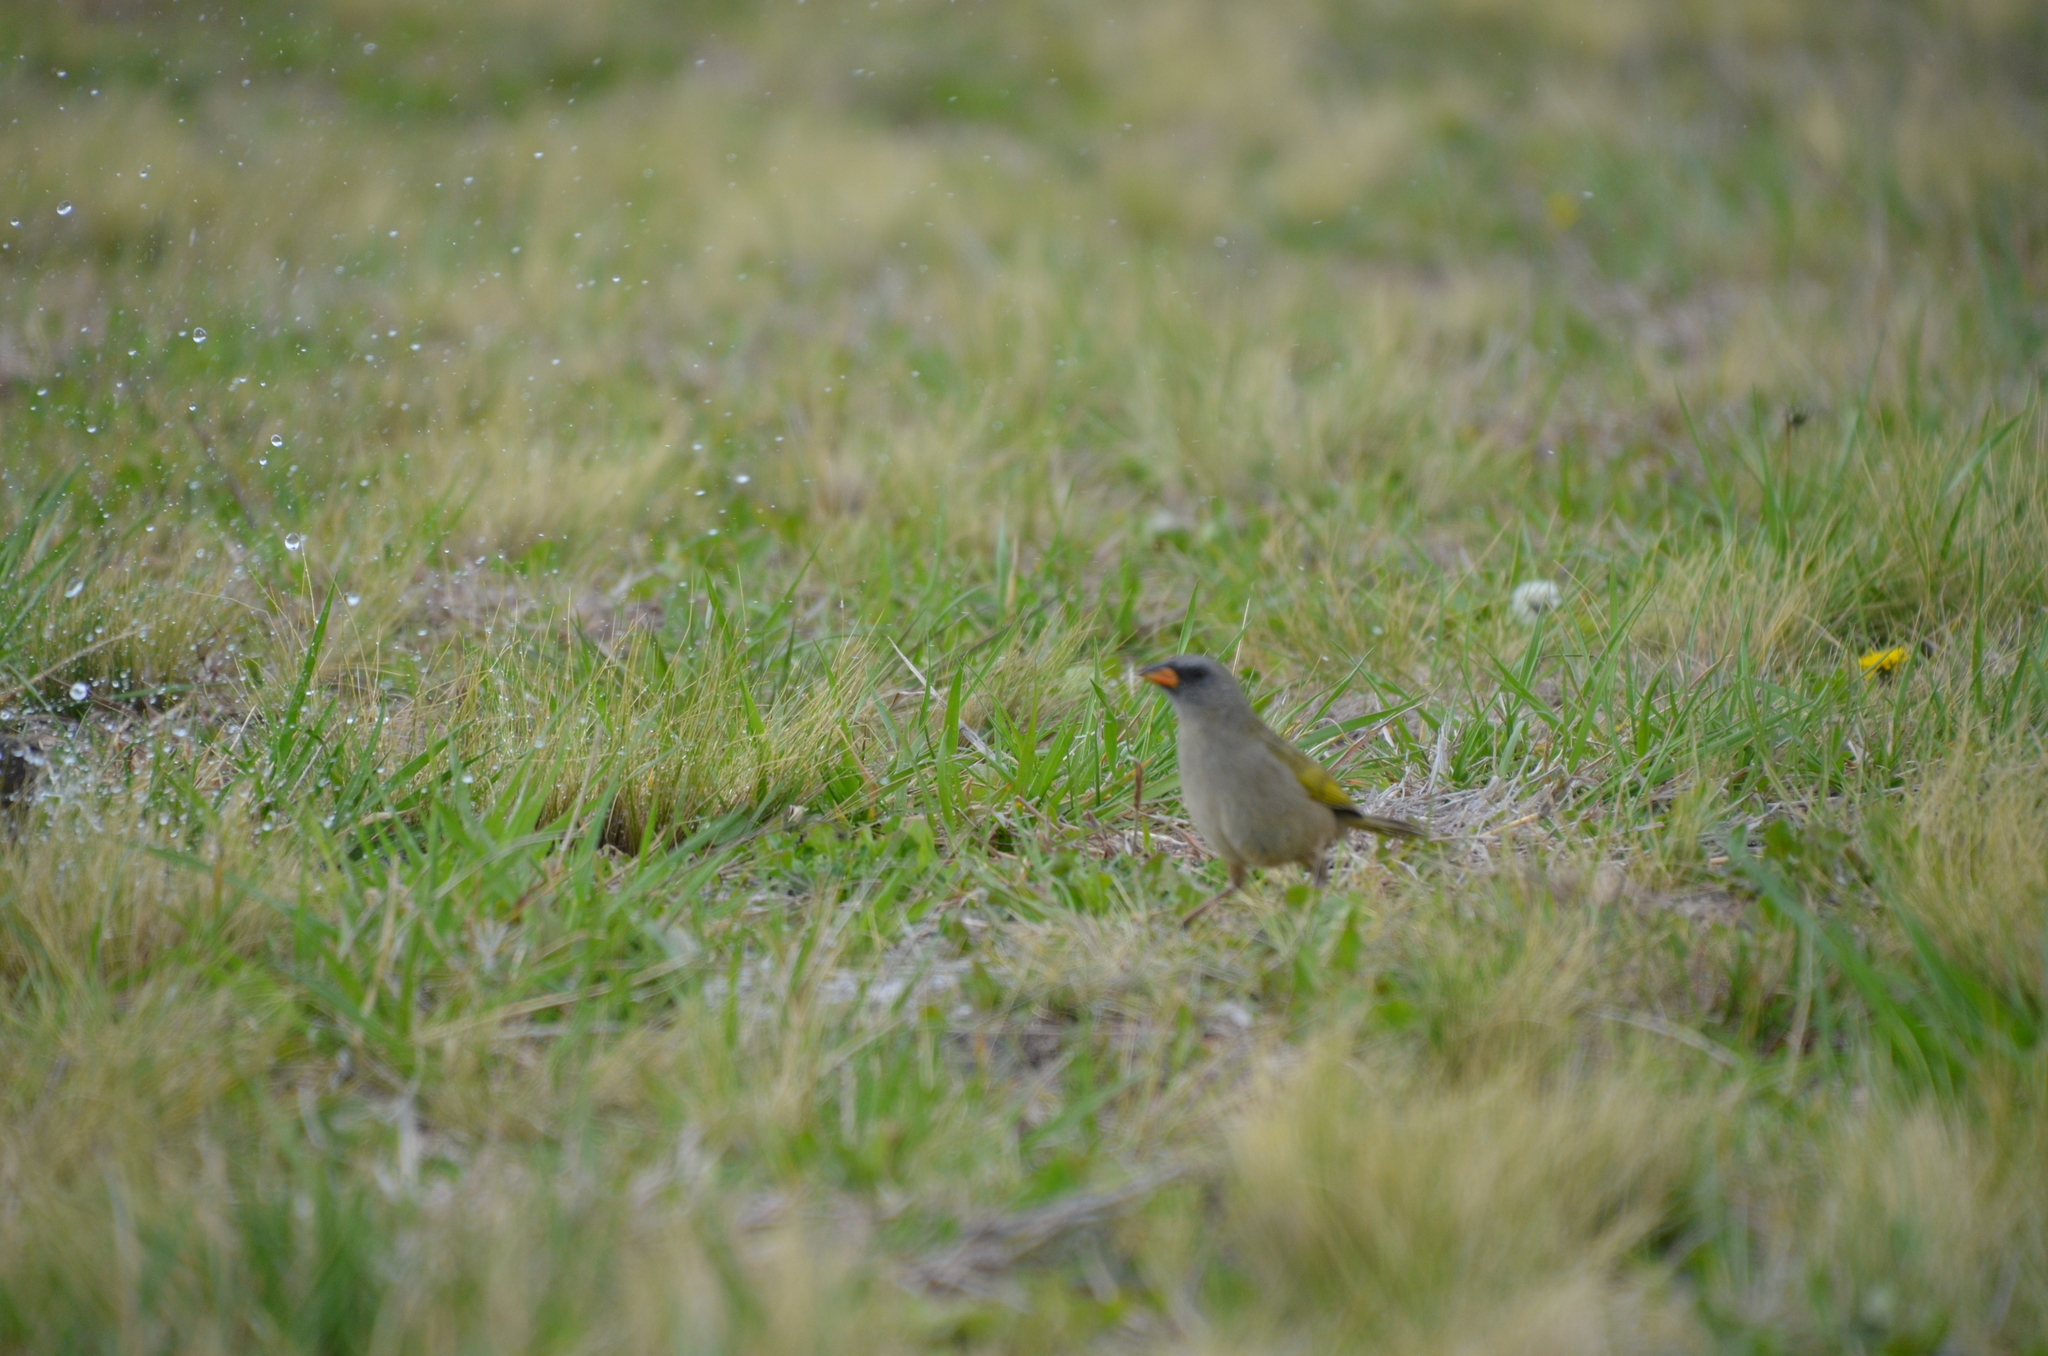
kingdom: Animalia
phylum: Chordata
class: Aves
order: Passeriformes
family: Thraupidae
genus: Embernagra
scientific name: Embernagra platensis
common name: Pampa finch
